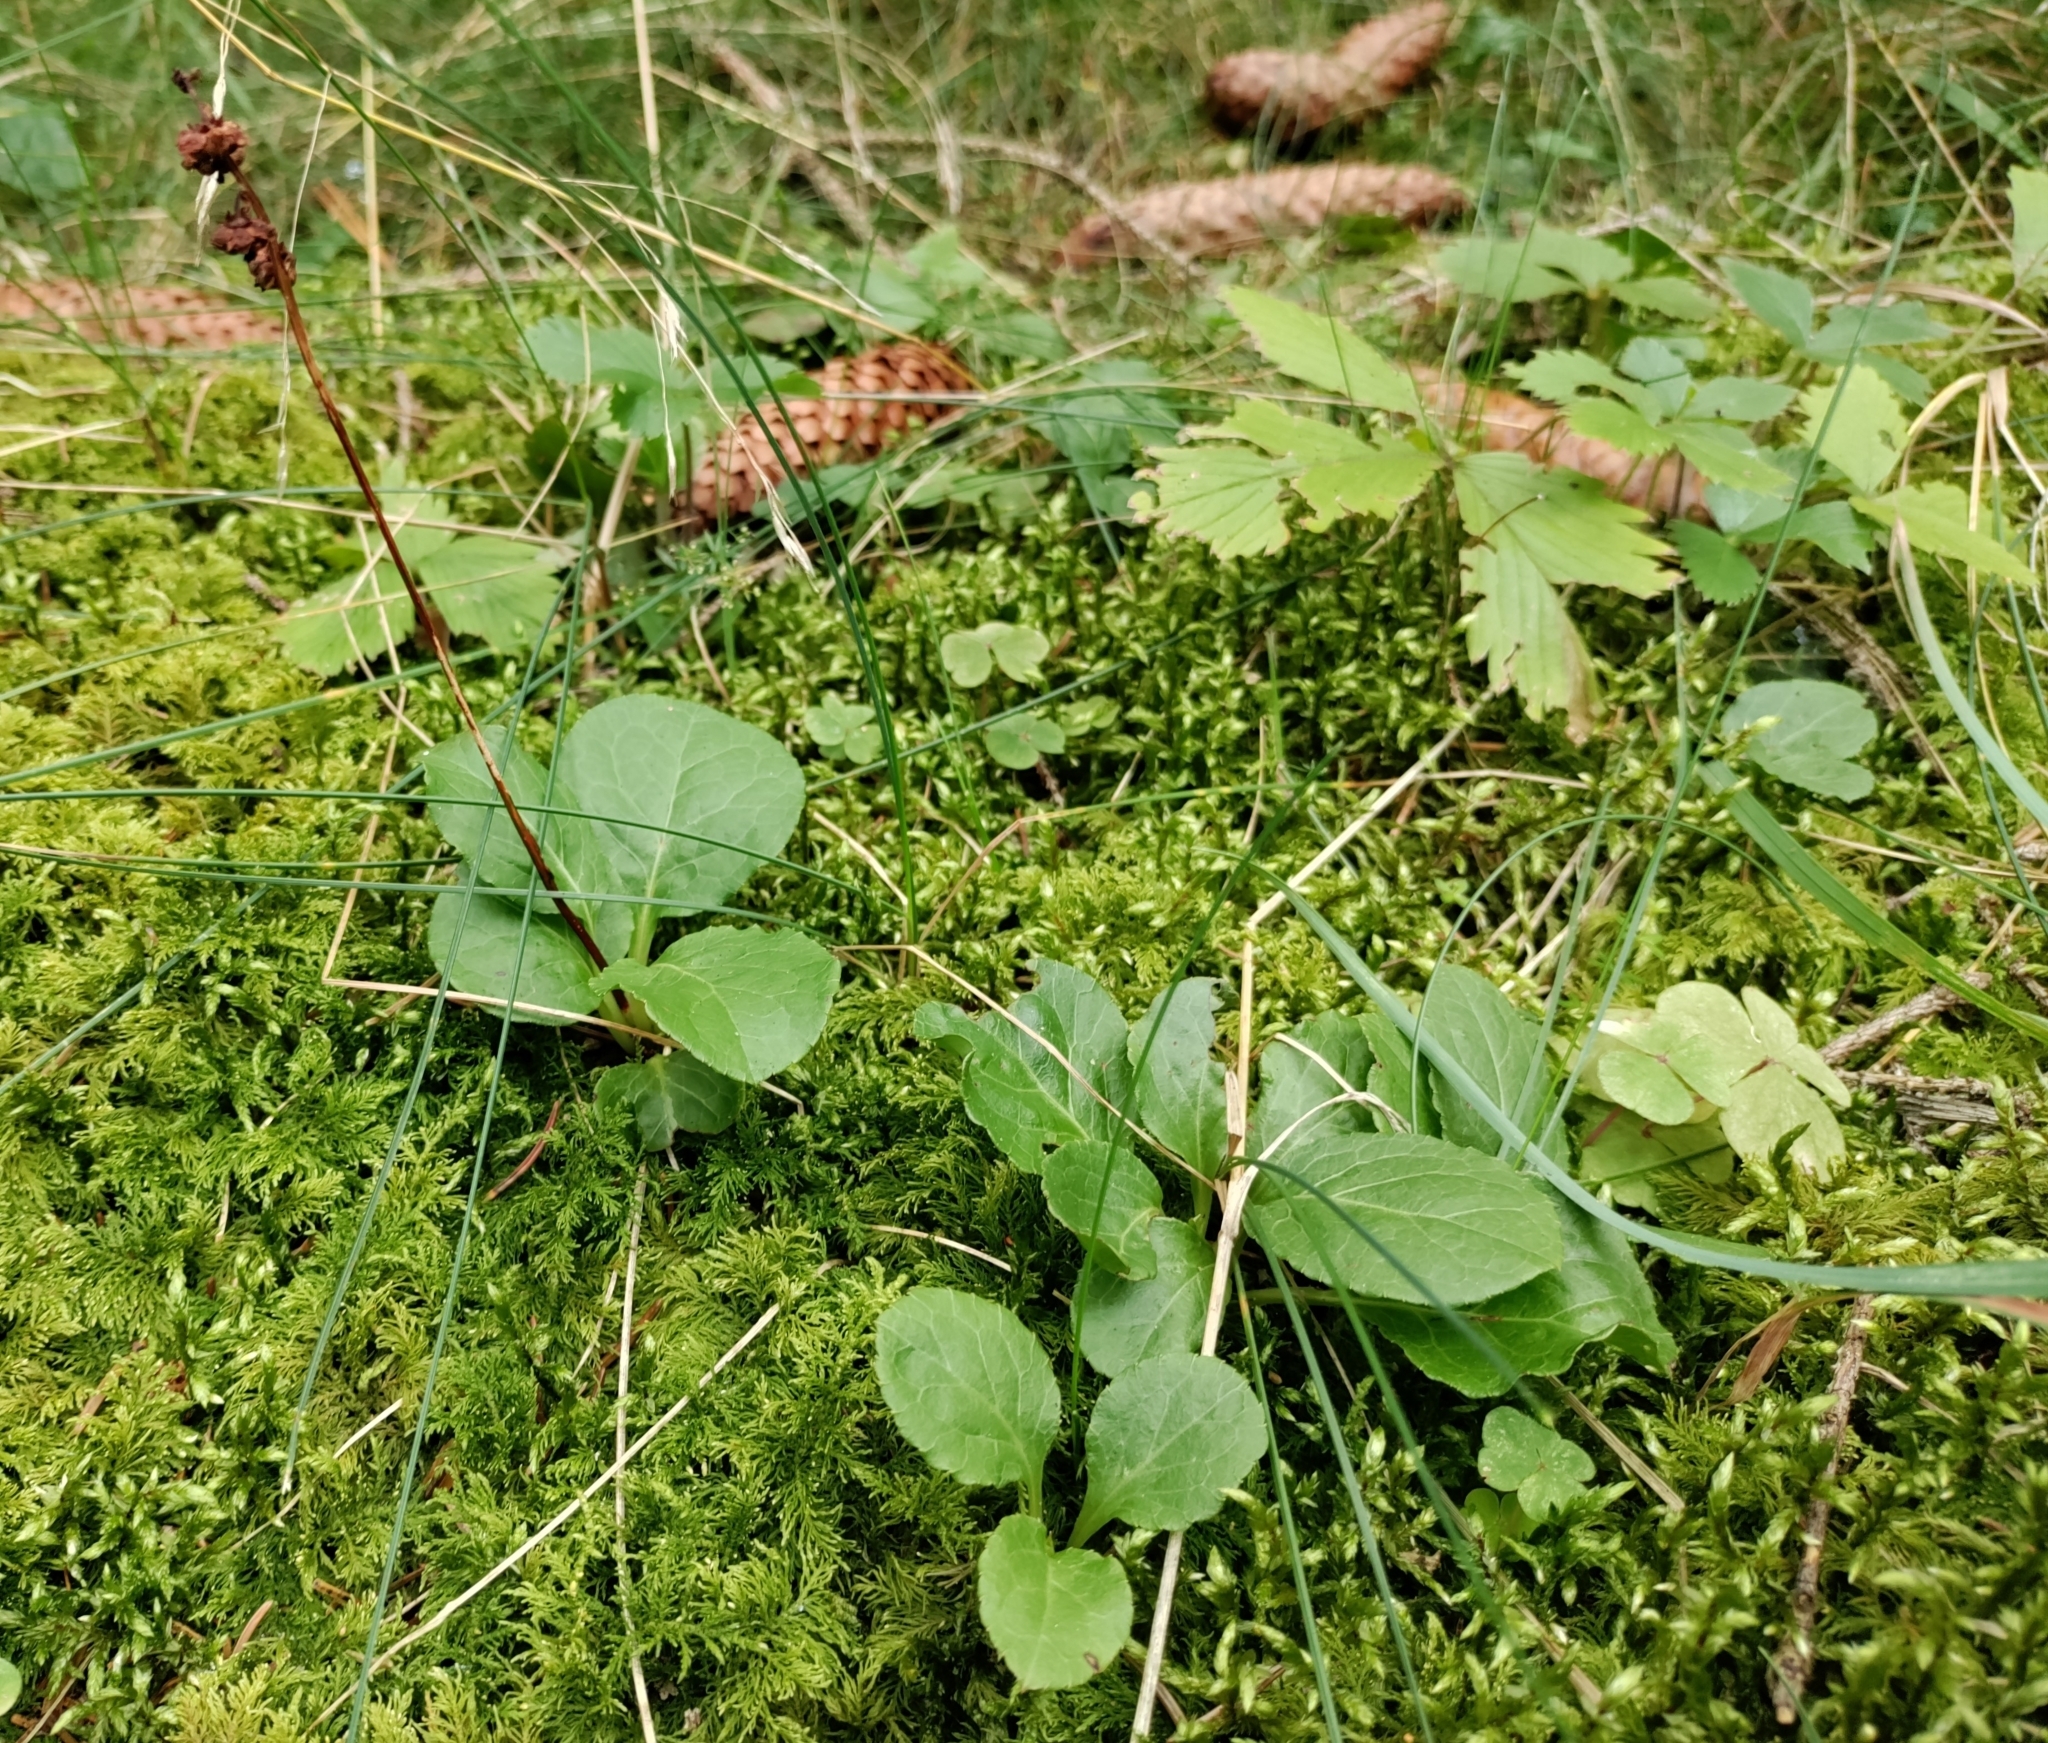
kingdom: Plantae
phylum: Tracheophyta
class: Magnoliopsida
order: Ericales
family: Ericaceae
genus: Pyrola
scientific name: Pyrola minor
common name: Common wintergreen
